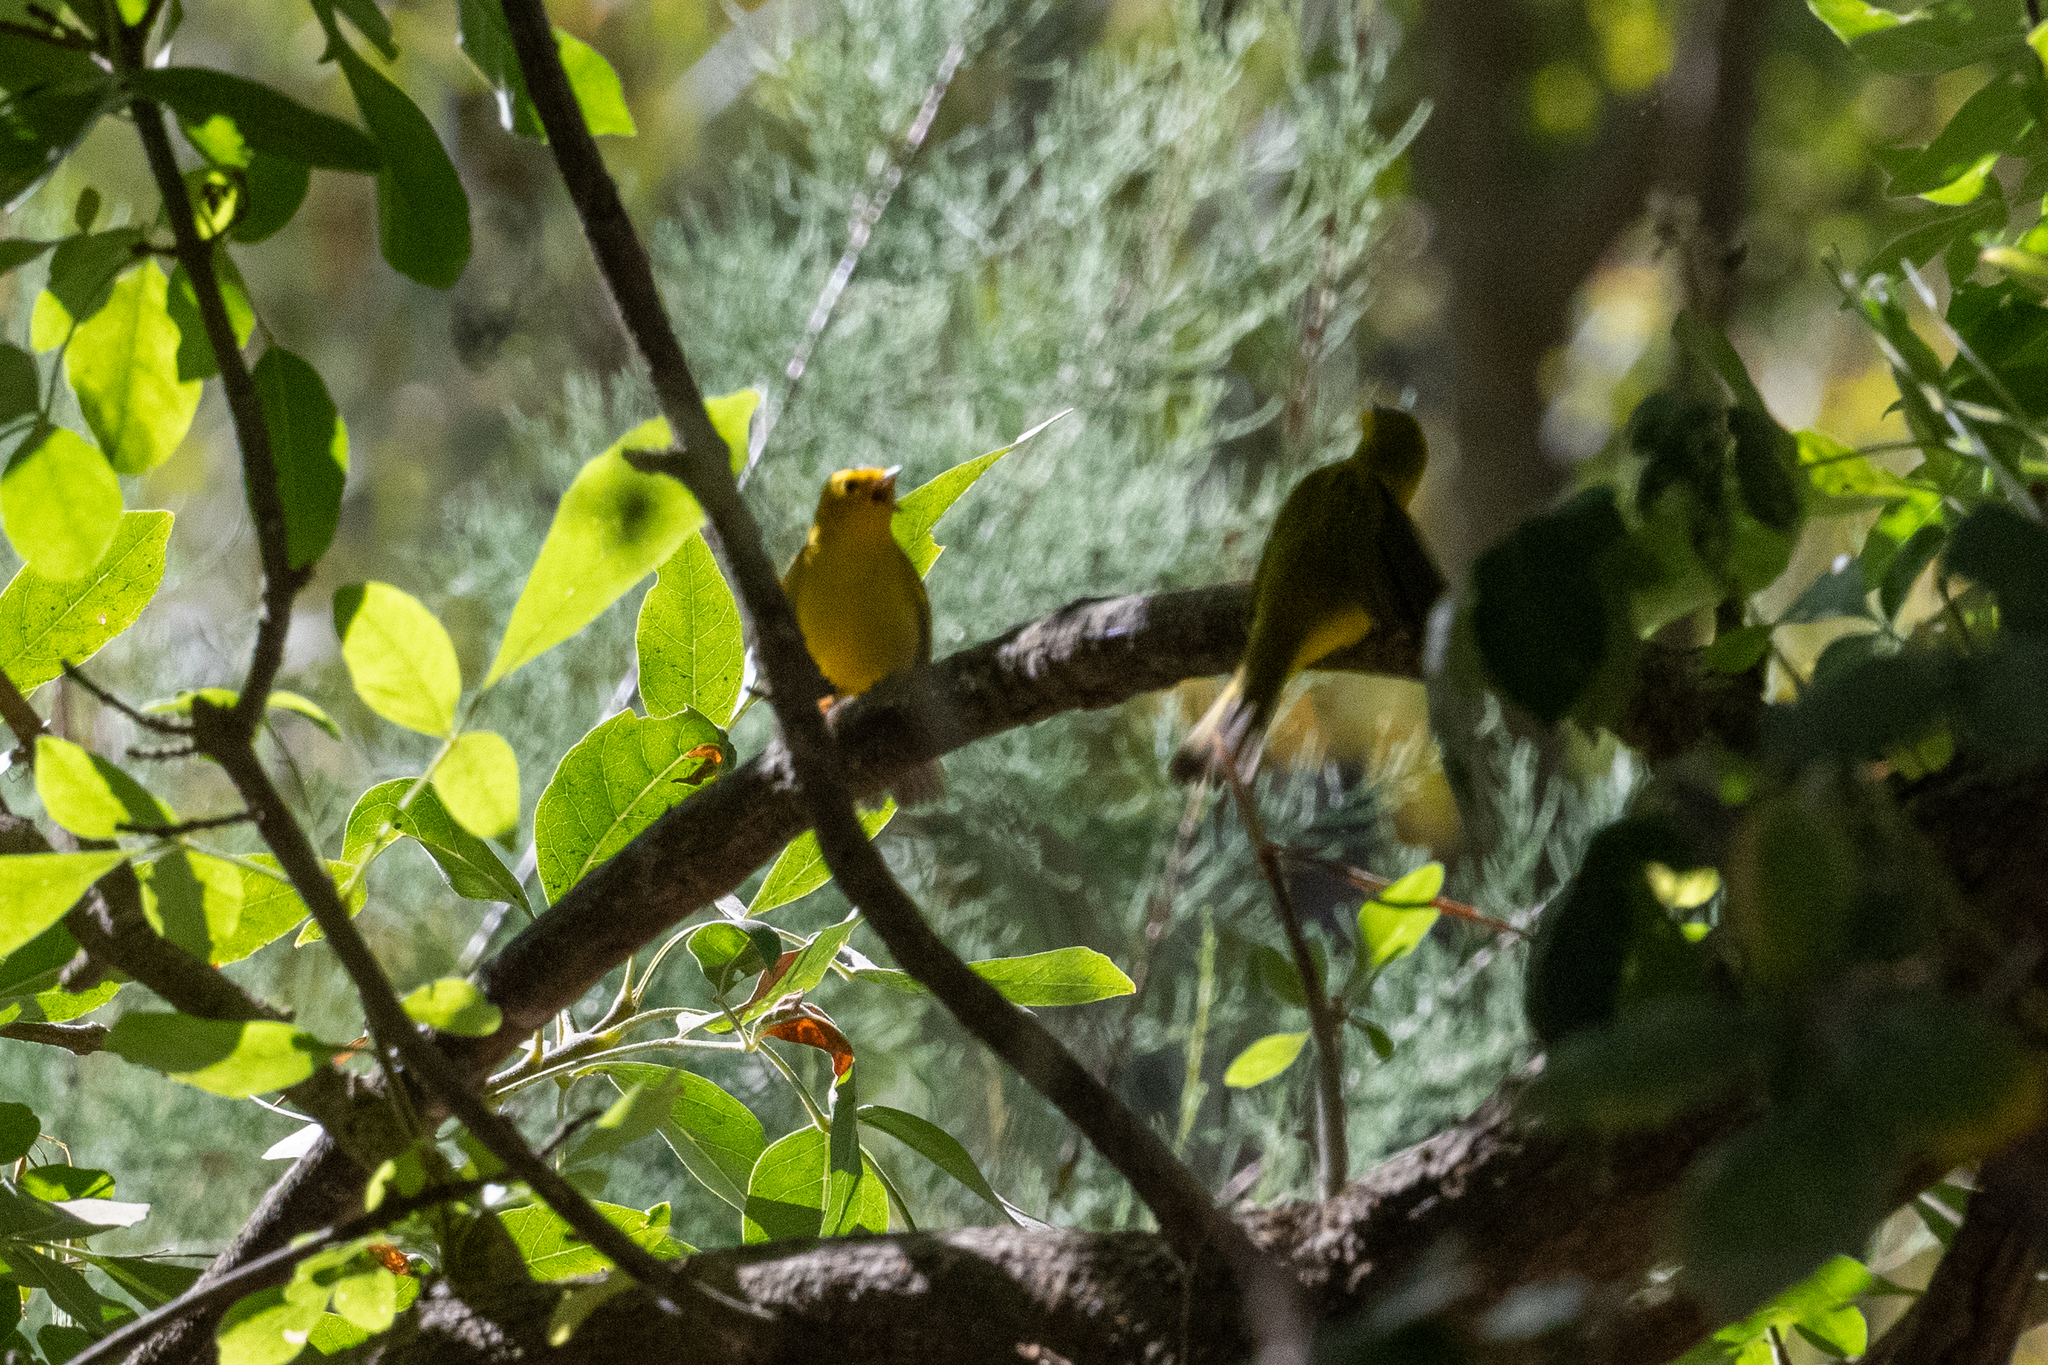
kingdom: Animalia
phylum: Chordata
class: Aves
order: Passeriformes
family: Parulidae
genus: Cardellina
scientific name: Cardellina pusilla
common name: Wilson's warbler
